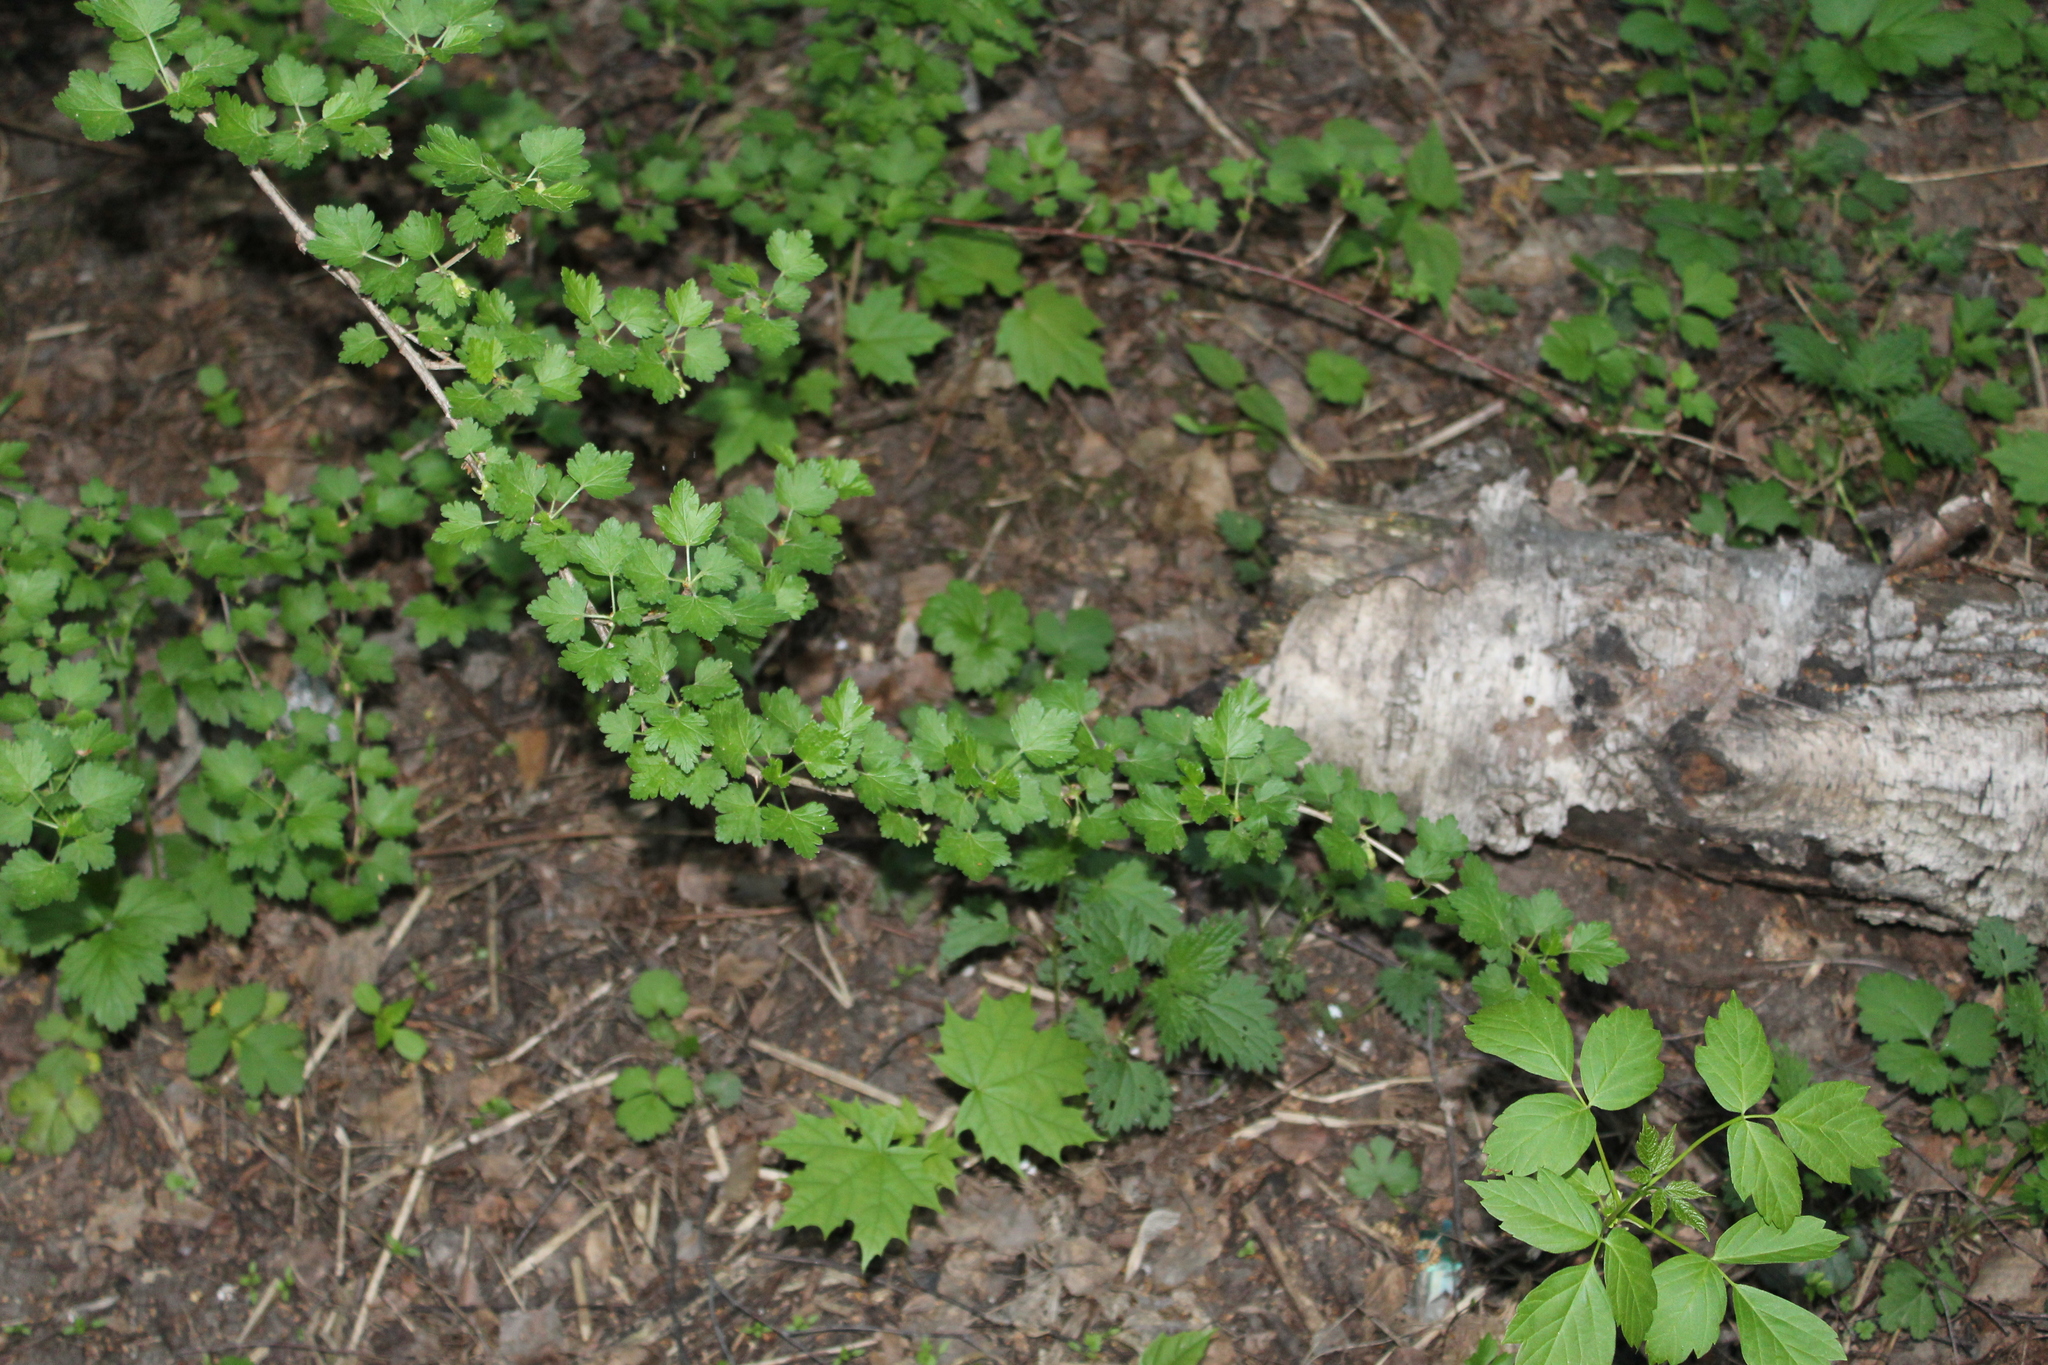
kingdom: Plantae
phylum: Tracheophyta
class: Magnoliopsida
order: Saxifragales
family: Grossulariaceae
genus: Ribes
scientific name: Ribes uva-crispa
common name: Gooseberry
